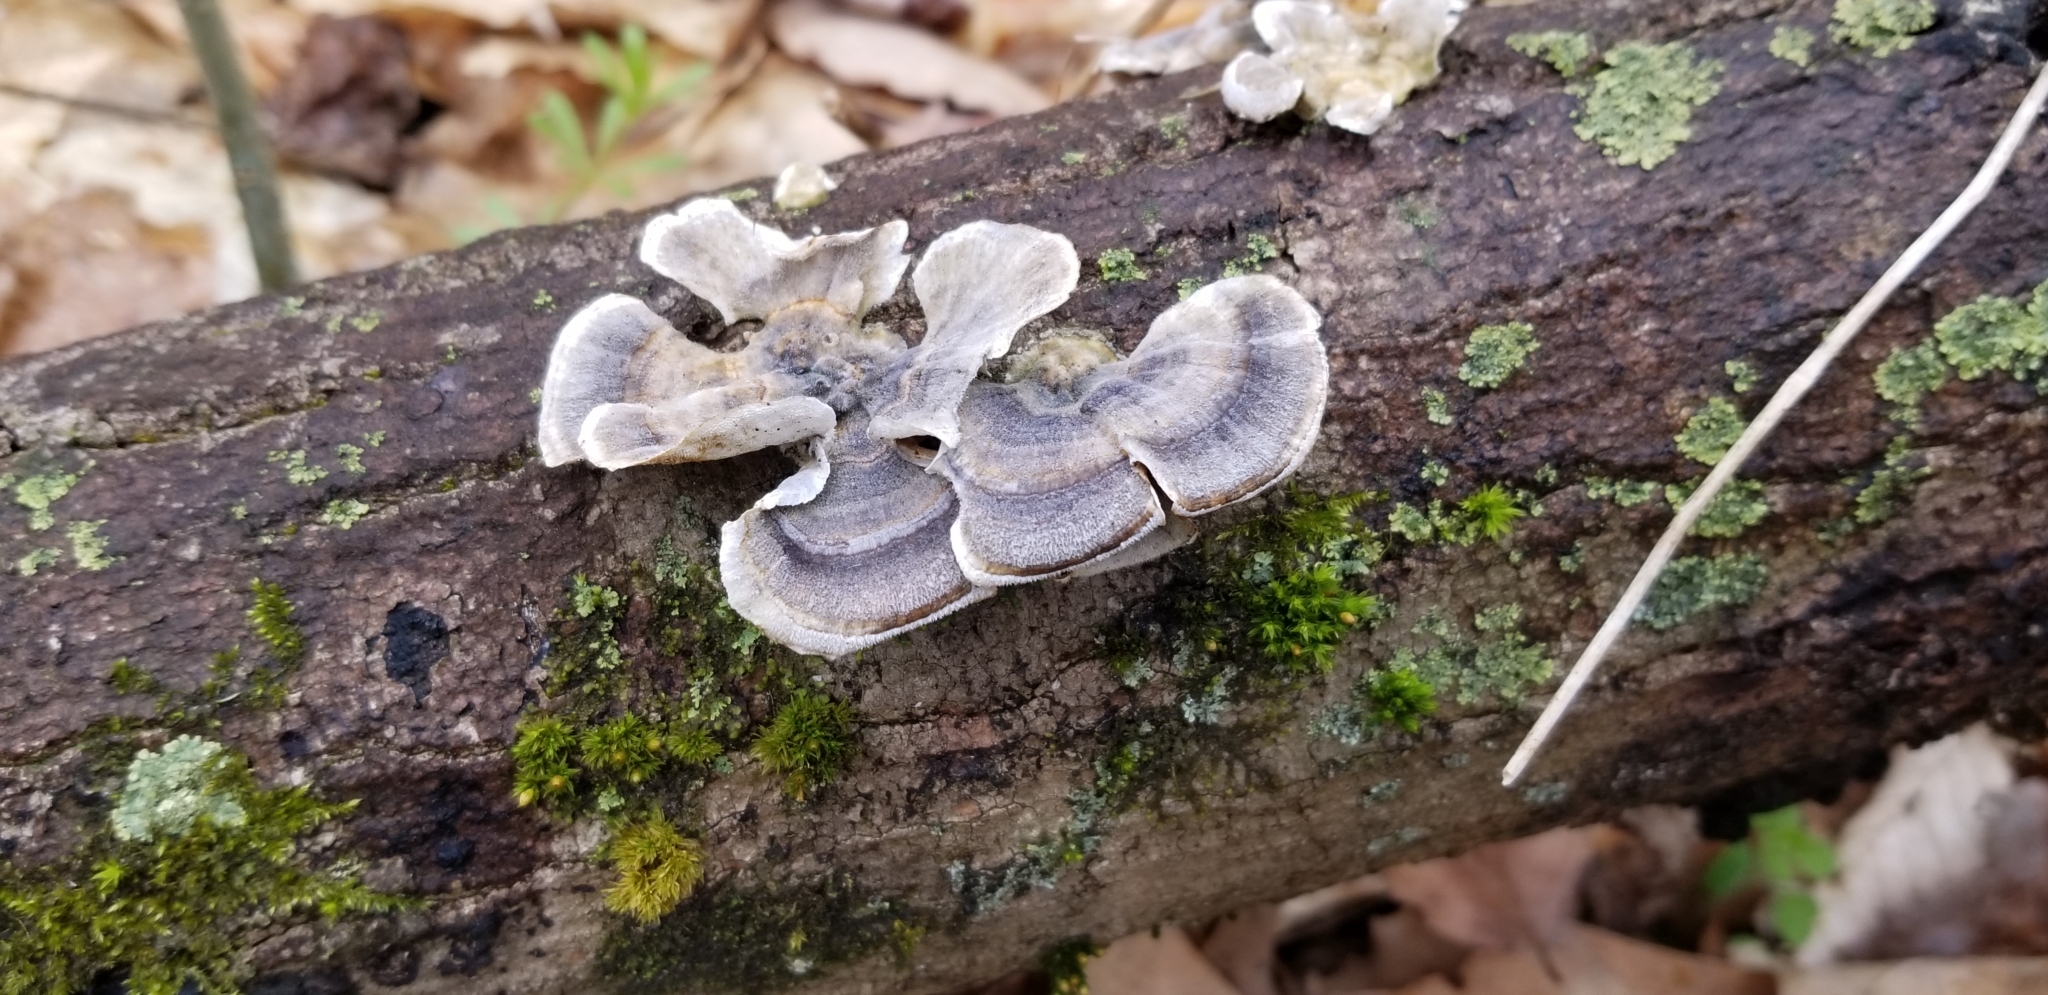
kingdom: Fungi
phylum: Basidiomycota
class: Agaricomycetes
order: Polyporales
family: Polyporaceae
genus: Trametes
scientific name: Trametes versicolor
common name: Turkeytail
